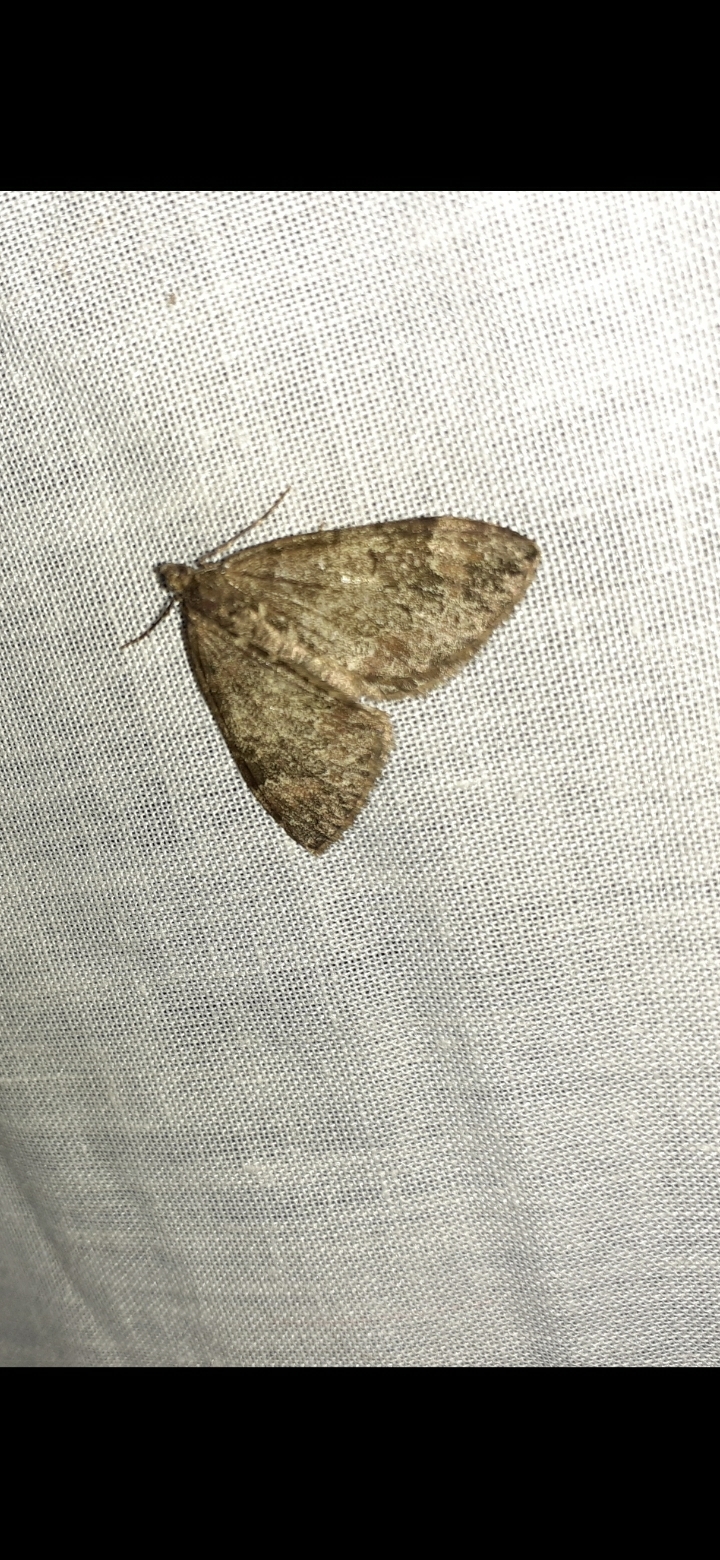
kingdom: Animalia
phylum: Arthropoda
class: Insecta
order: Lepidoptera
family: Geometridae
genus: Dysstroma
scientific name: Dysstroma truncata
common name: Common marbled carpet
